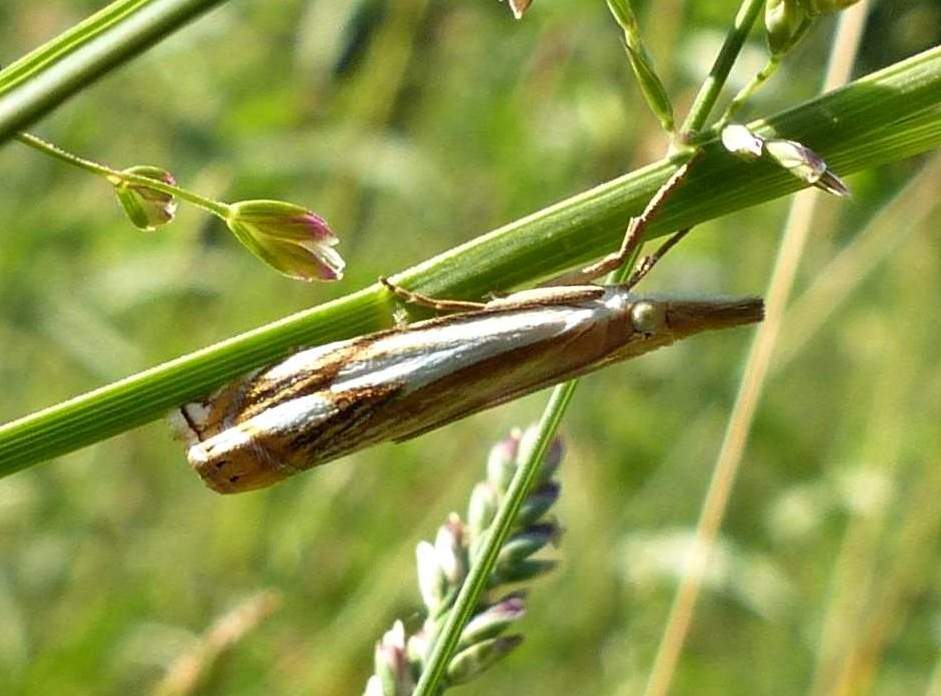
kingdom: Animalia
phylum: Arthropoda
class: Insecta
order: Lepidoptera
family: Crambidae
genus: Crambus
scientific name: Crambus agitatellus
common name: Double-banded grass-veneer
